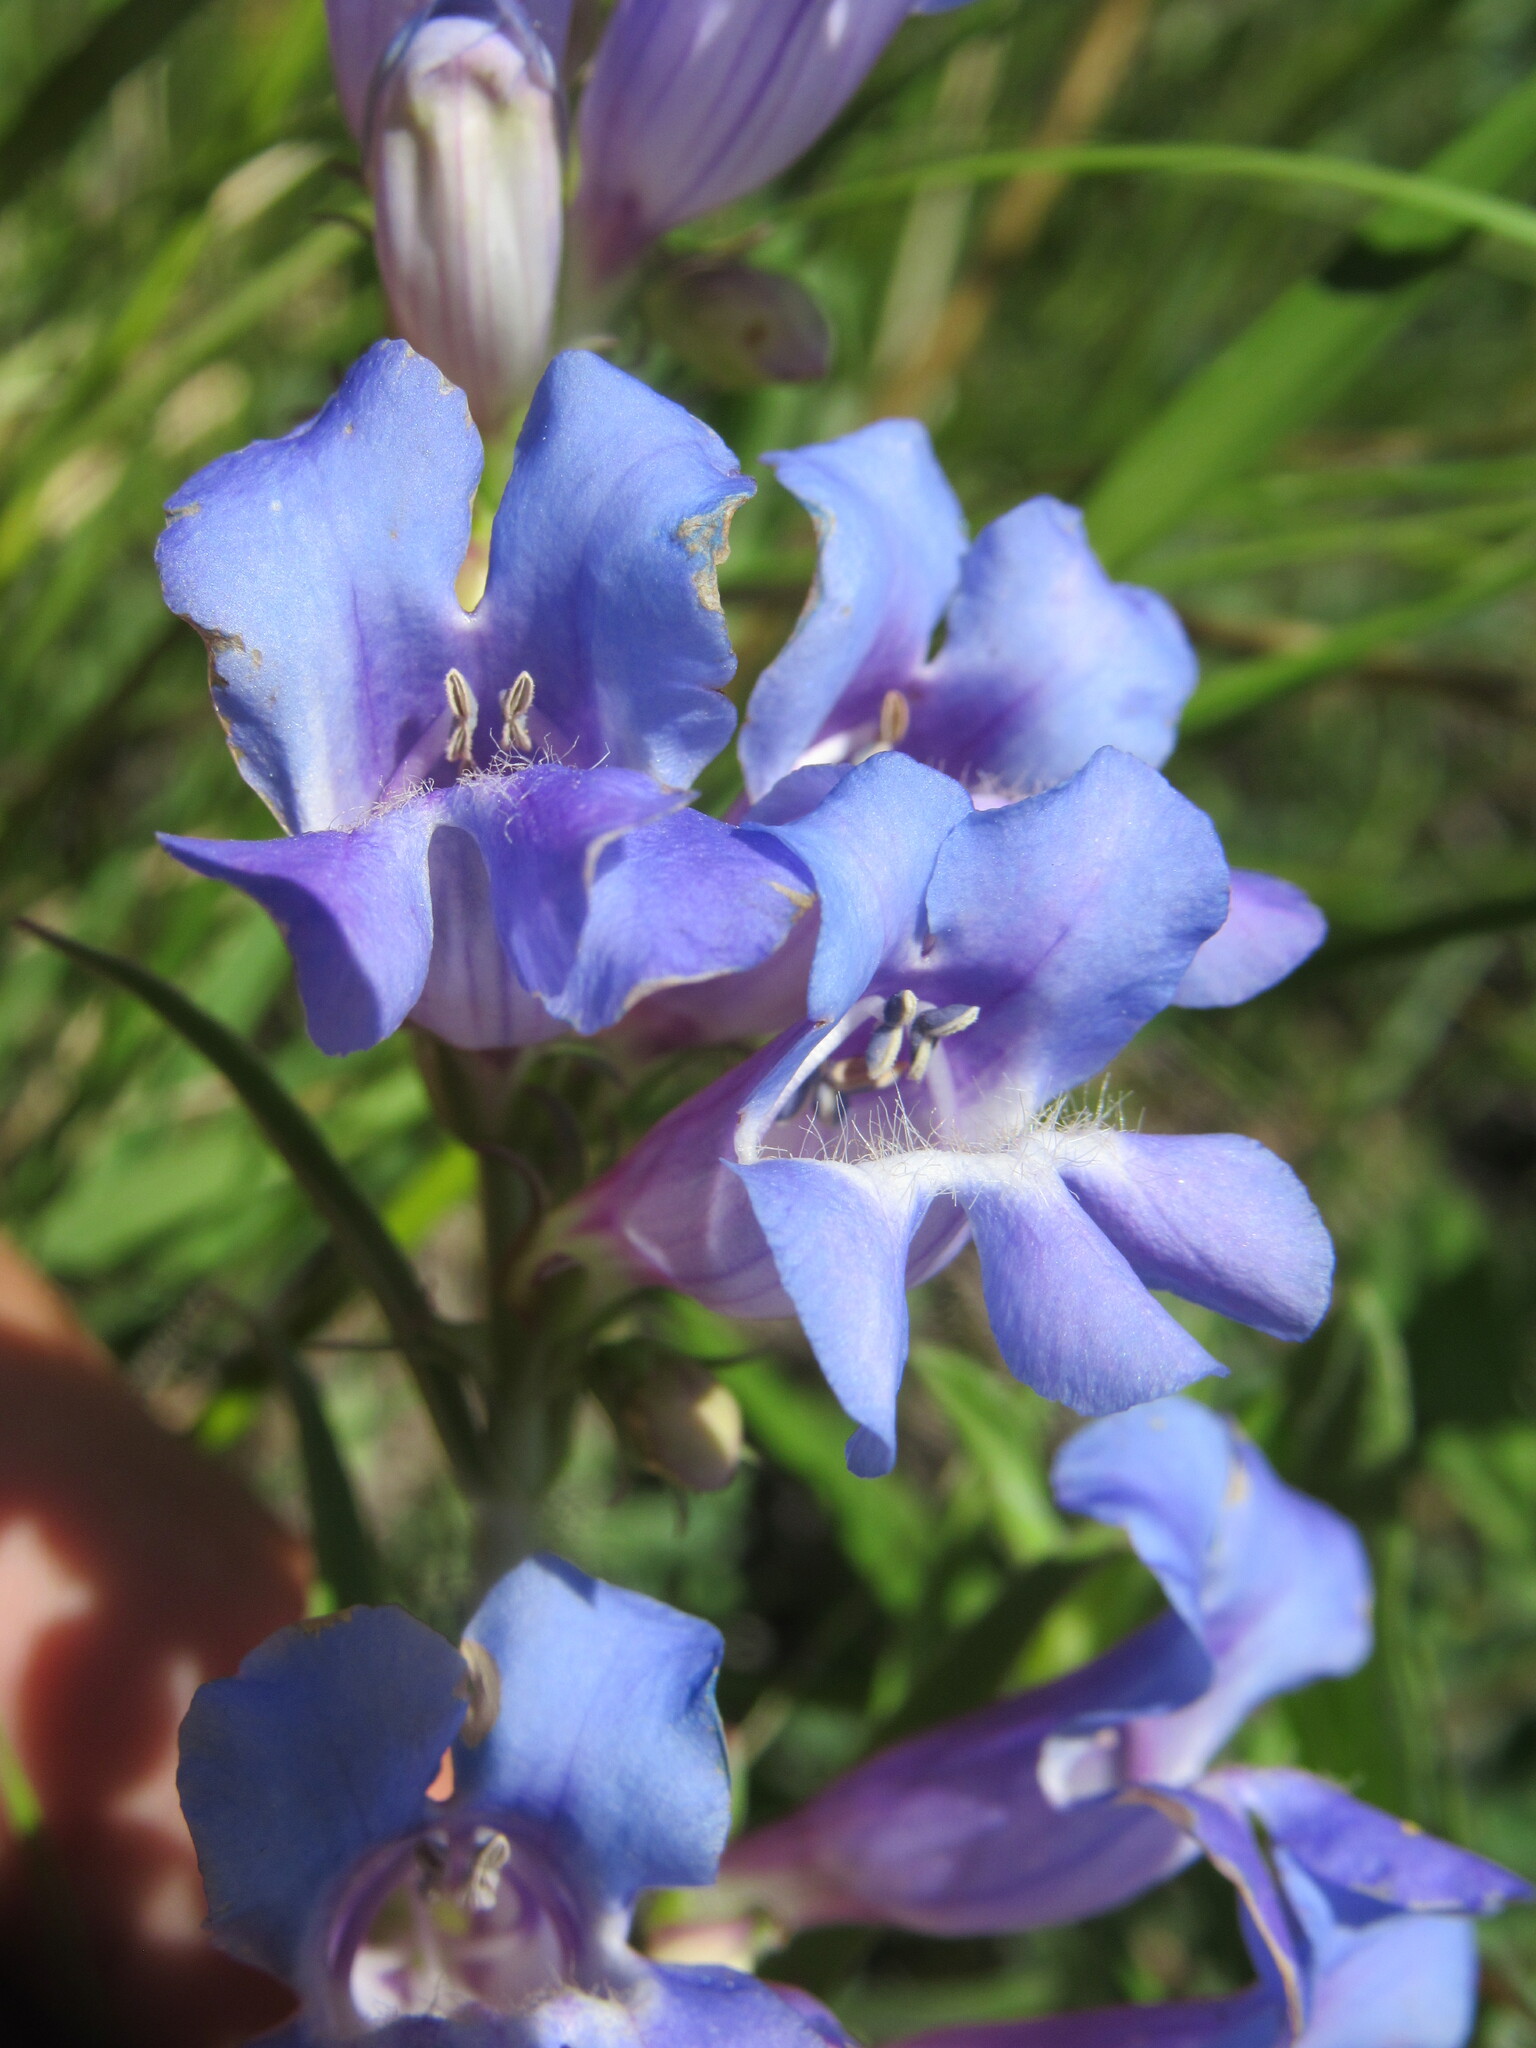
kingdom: Plantae
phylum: Tracheophyta
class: Magnoliopsida
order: Lamiales
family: Plantaginaceae
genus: Penstemon
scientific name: Penstemon glaber
